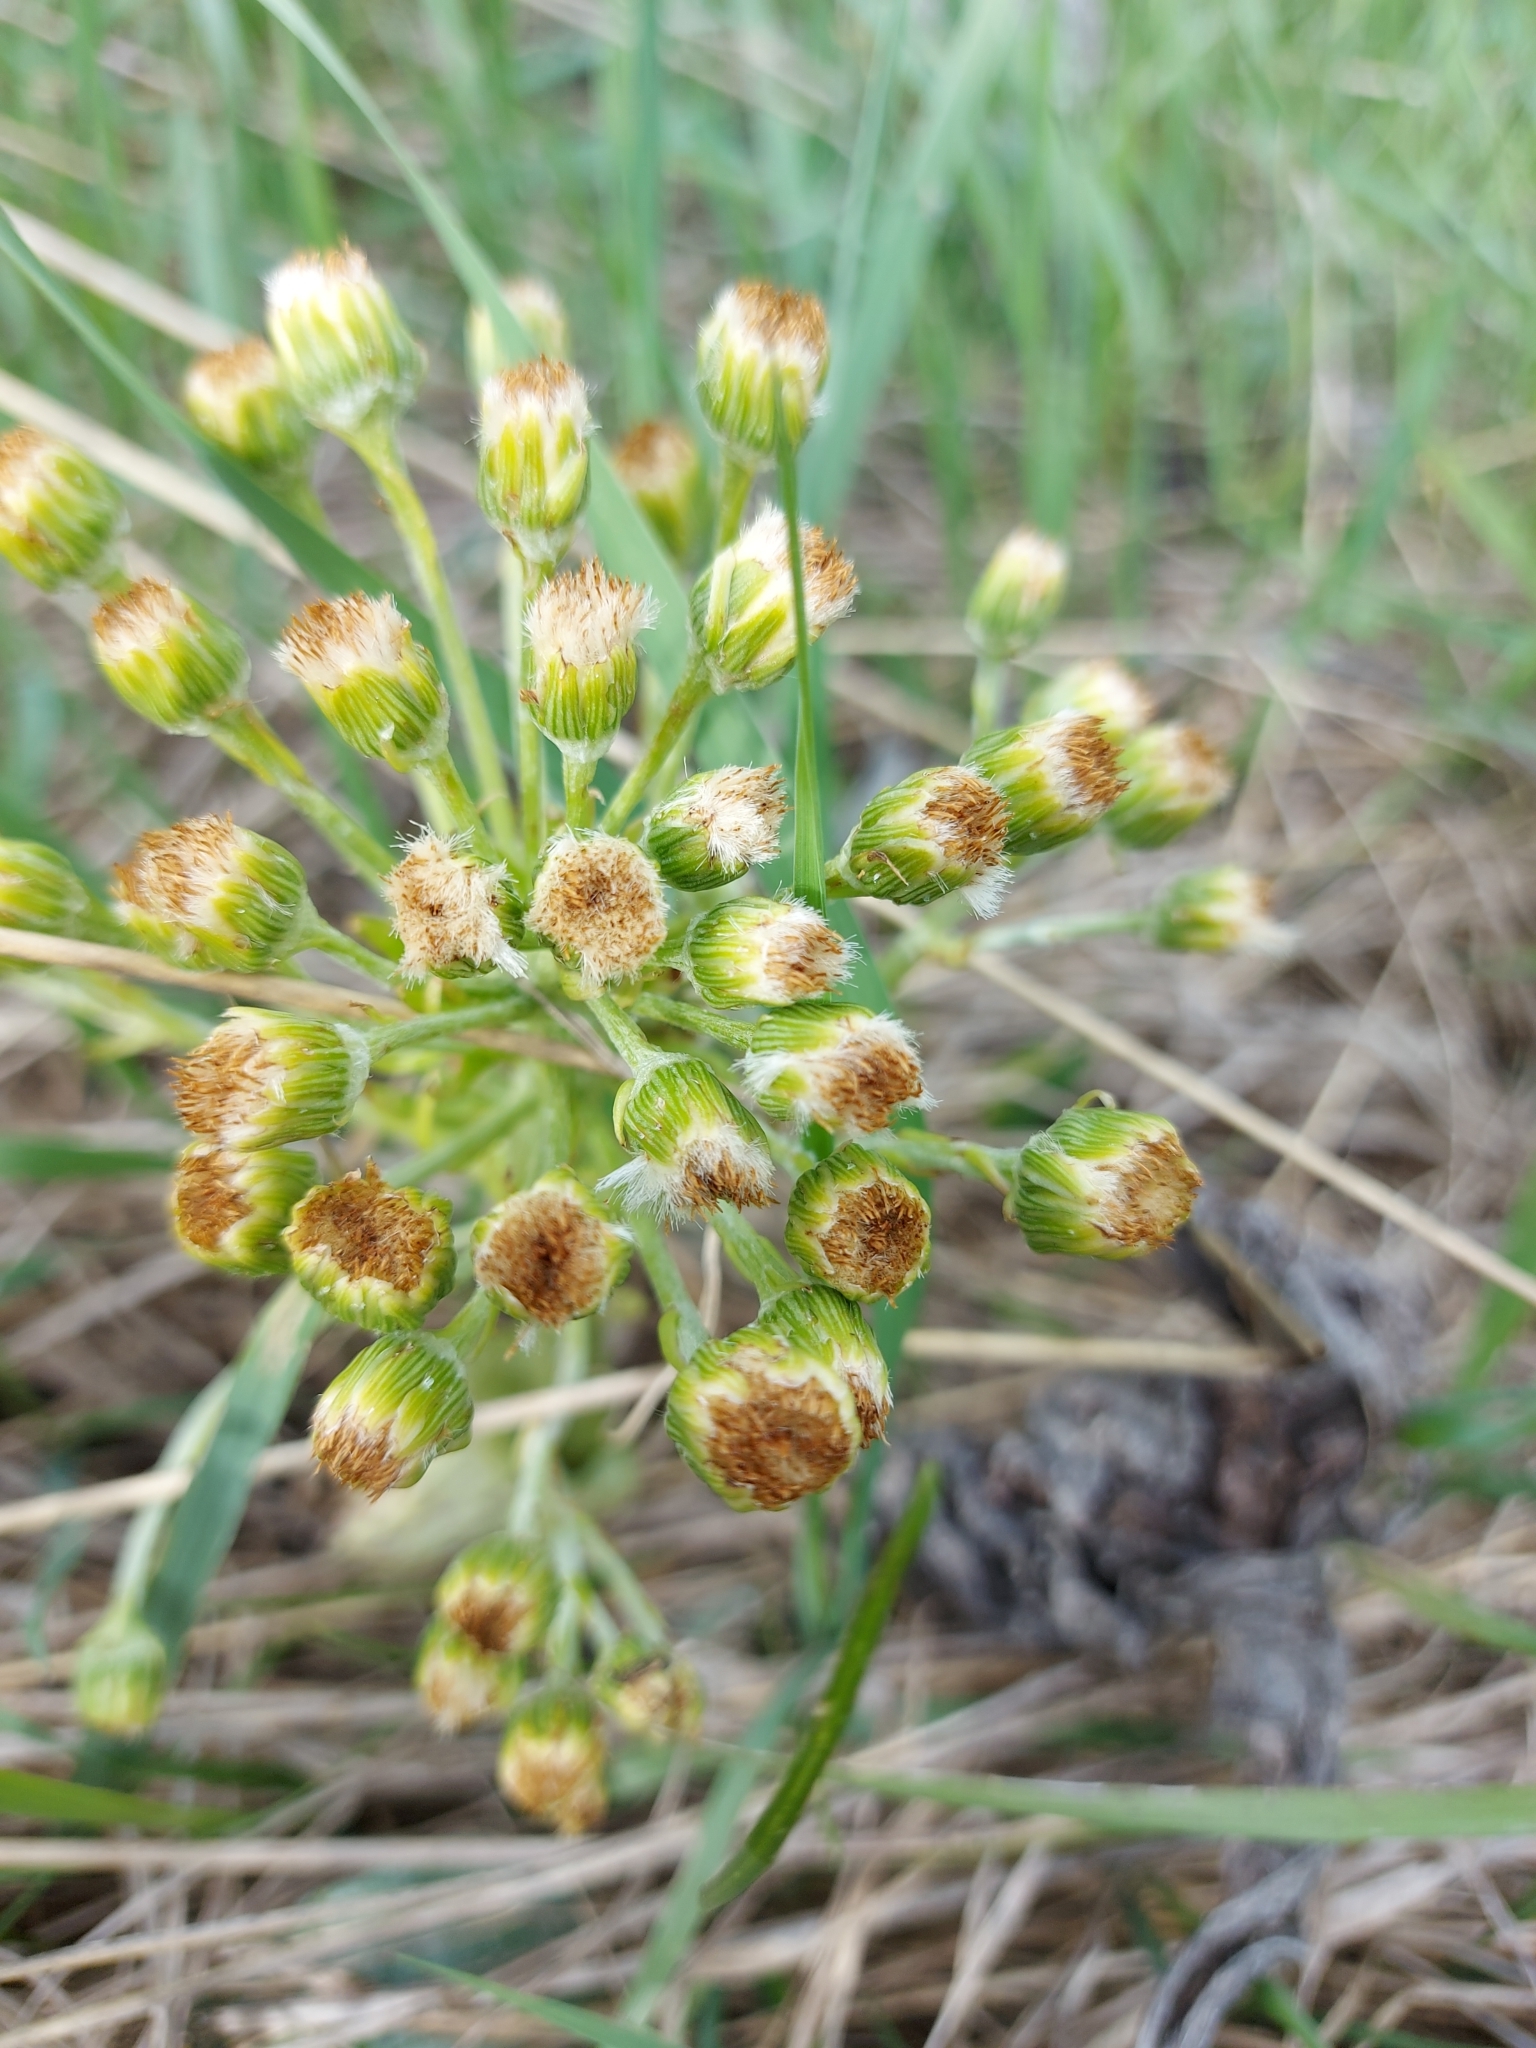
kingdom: Plantae
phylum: Tracheophyta
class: Magnoliopsida
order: Asterales
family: Asteraceae
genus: Petasites
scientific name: Petasites spurius
